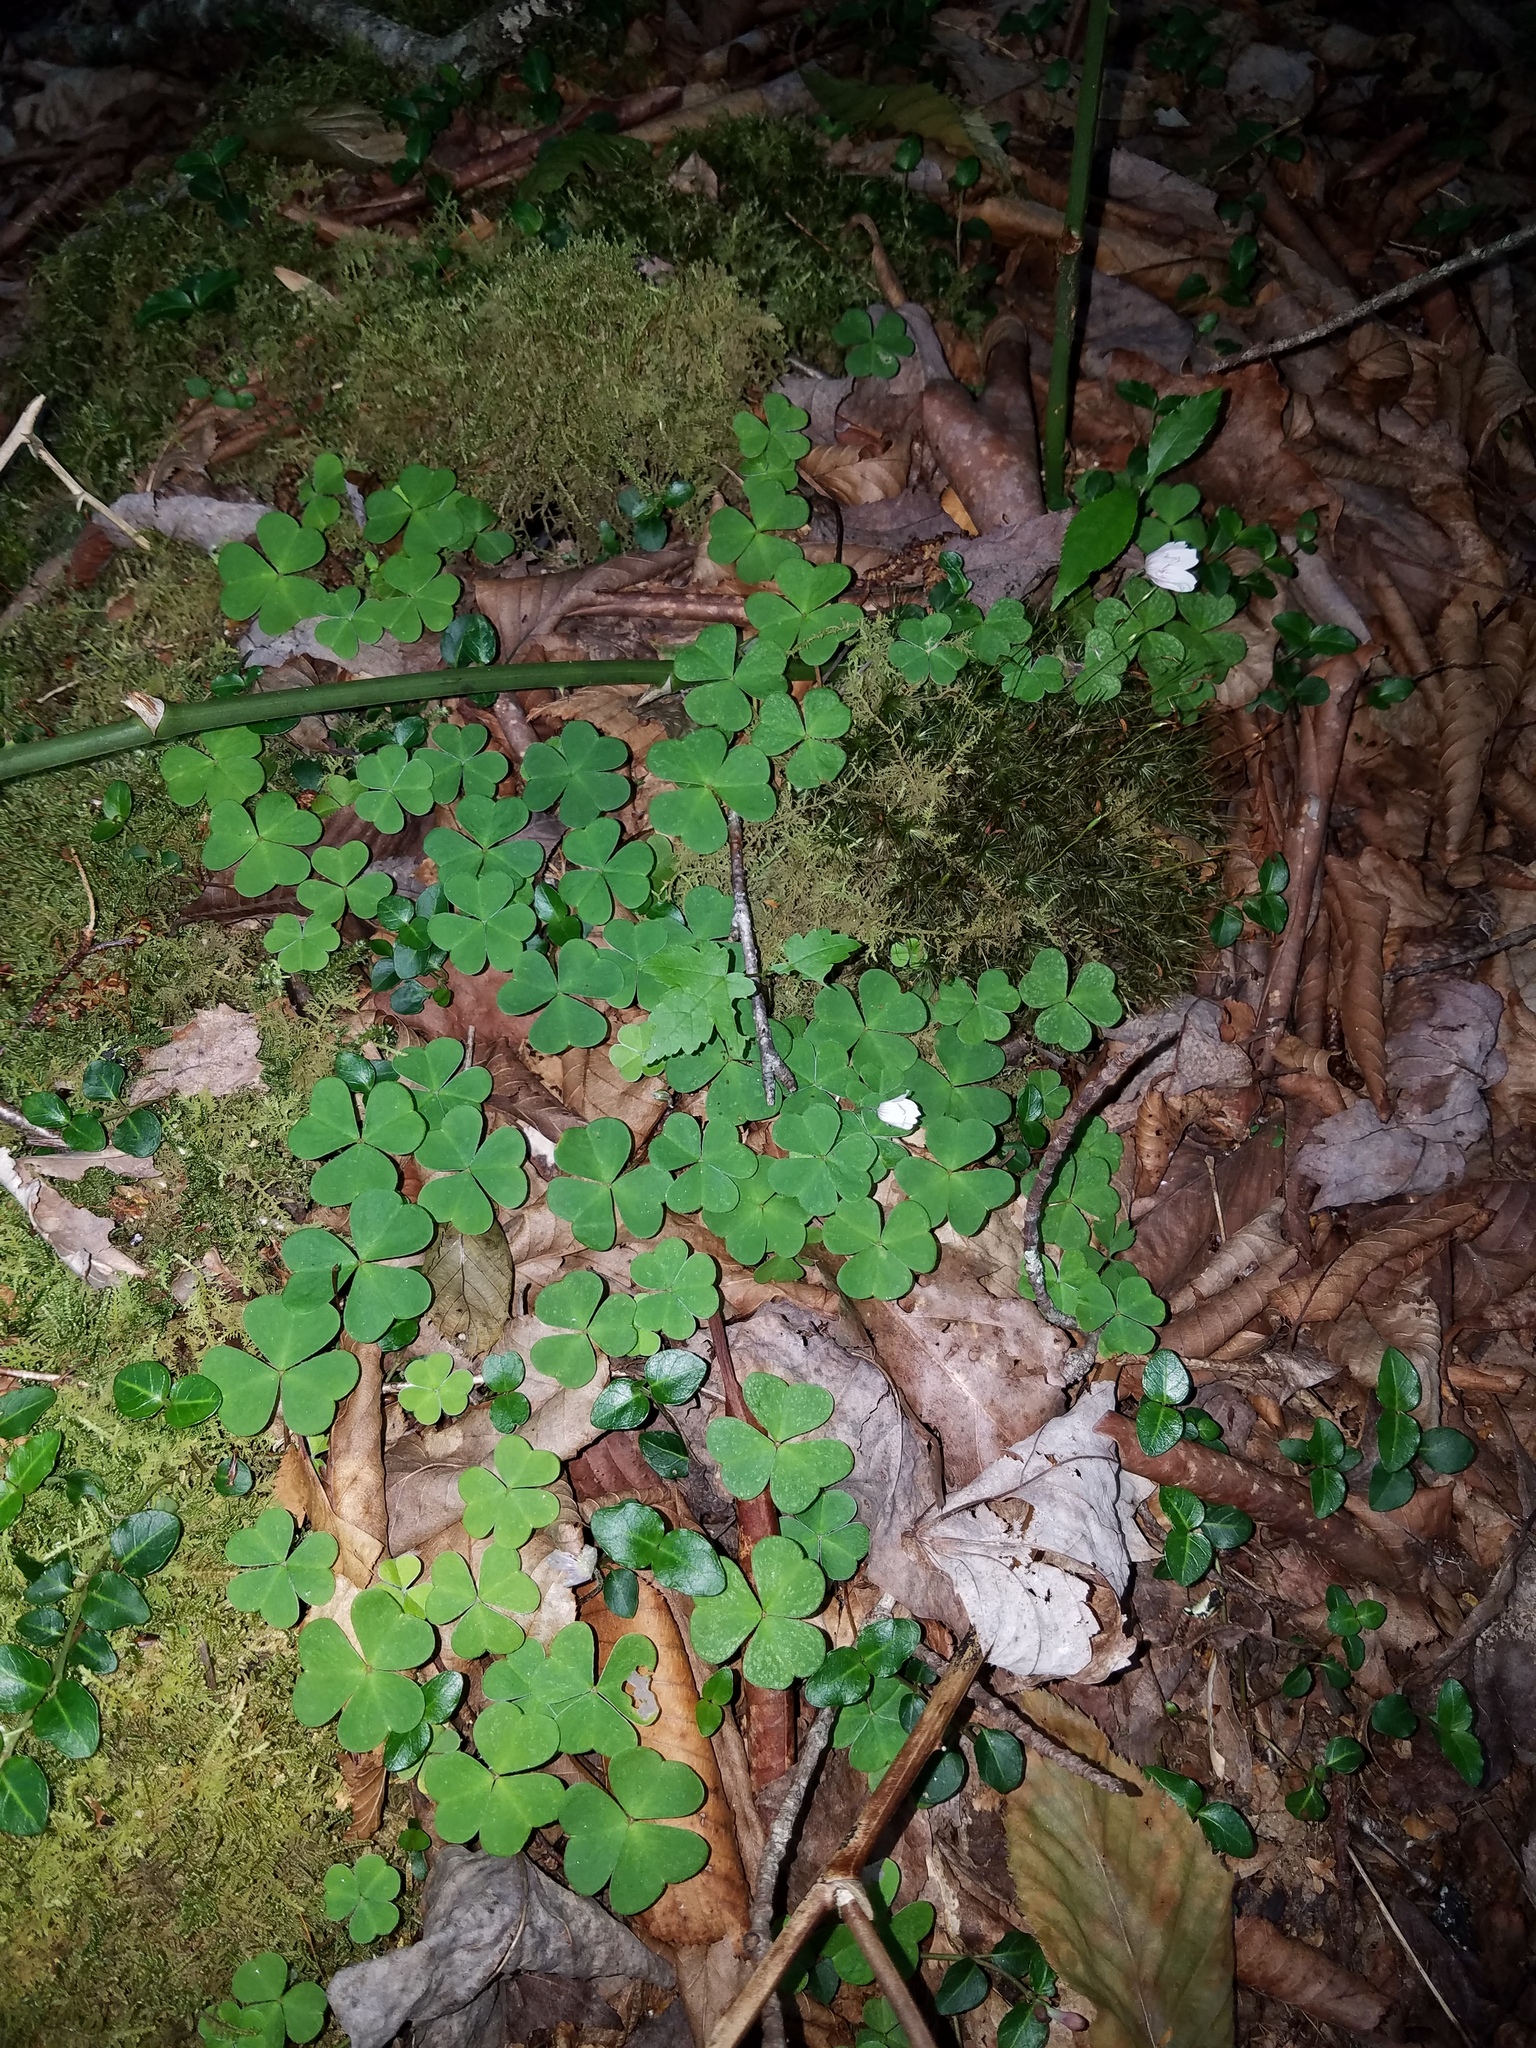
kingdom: Plantae
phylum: Tracheophyta
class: Magnoliopsida
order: Oxalidales
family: Oxalidaceae
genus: Oxalis
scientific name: Oxalis montana
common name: American wood-sorrel
